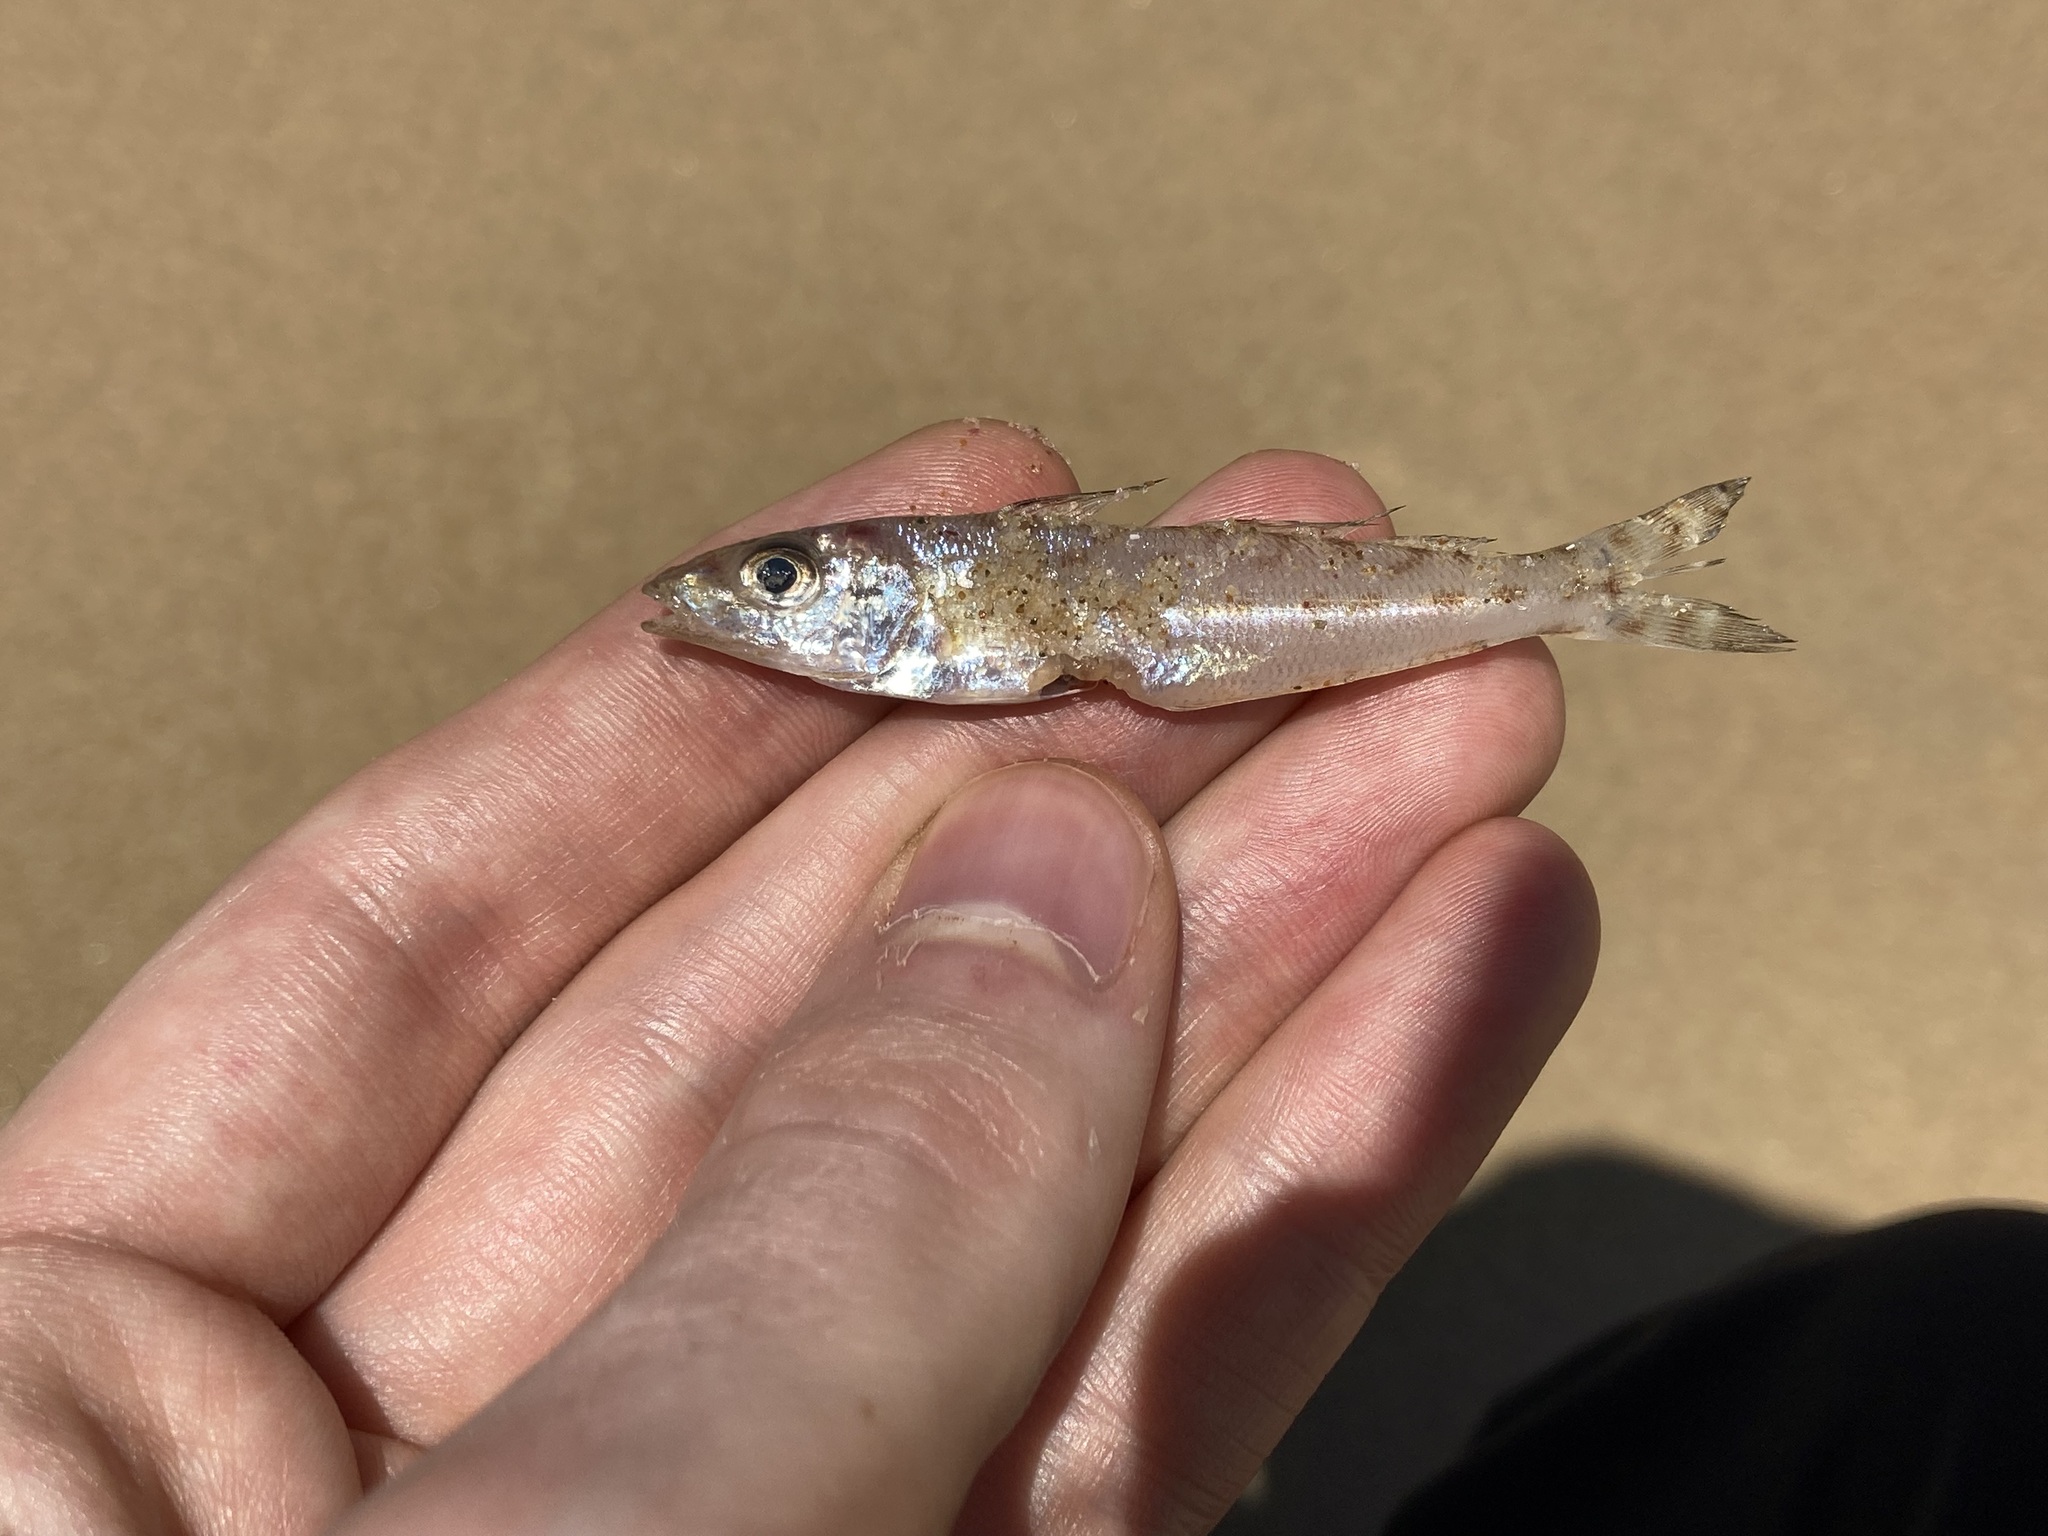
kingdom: Animalia
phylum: Chordata
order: Perciformes
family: Sillaginidae
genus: Sillago
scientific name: Sillago maculata
